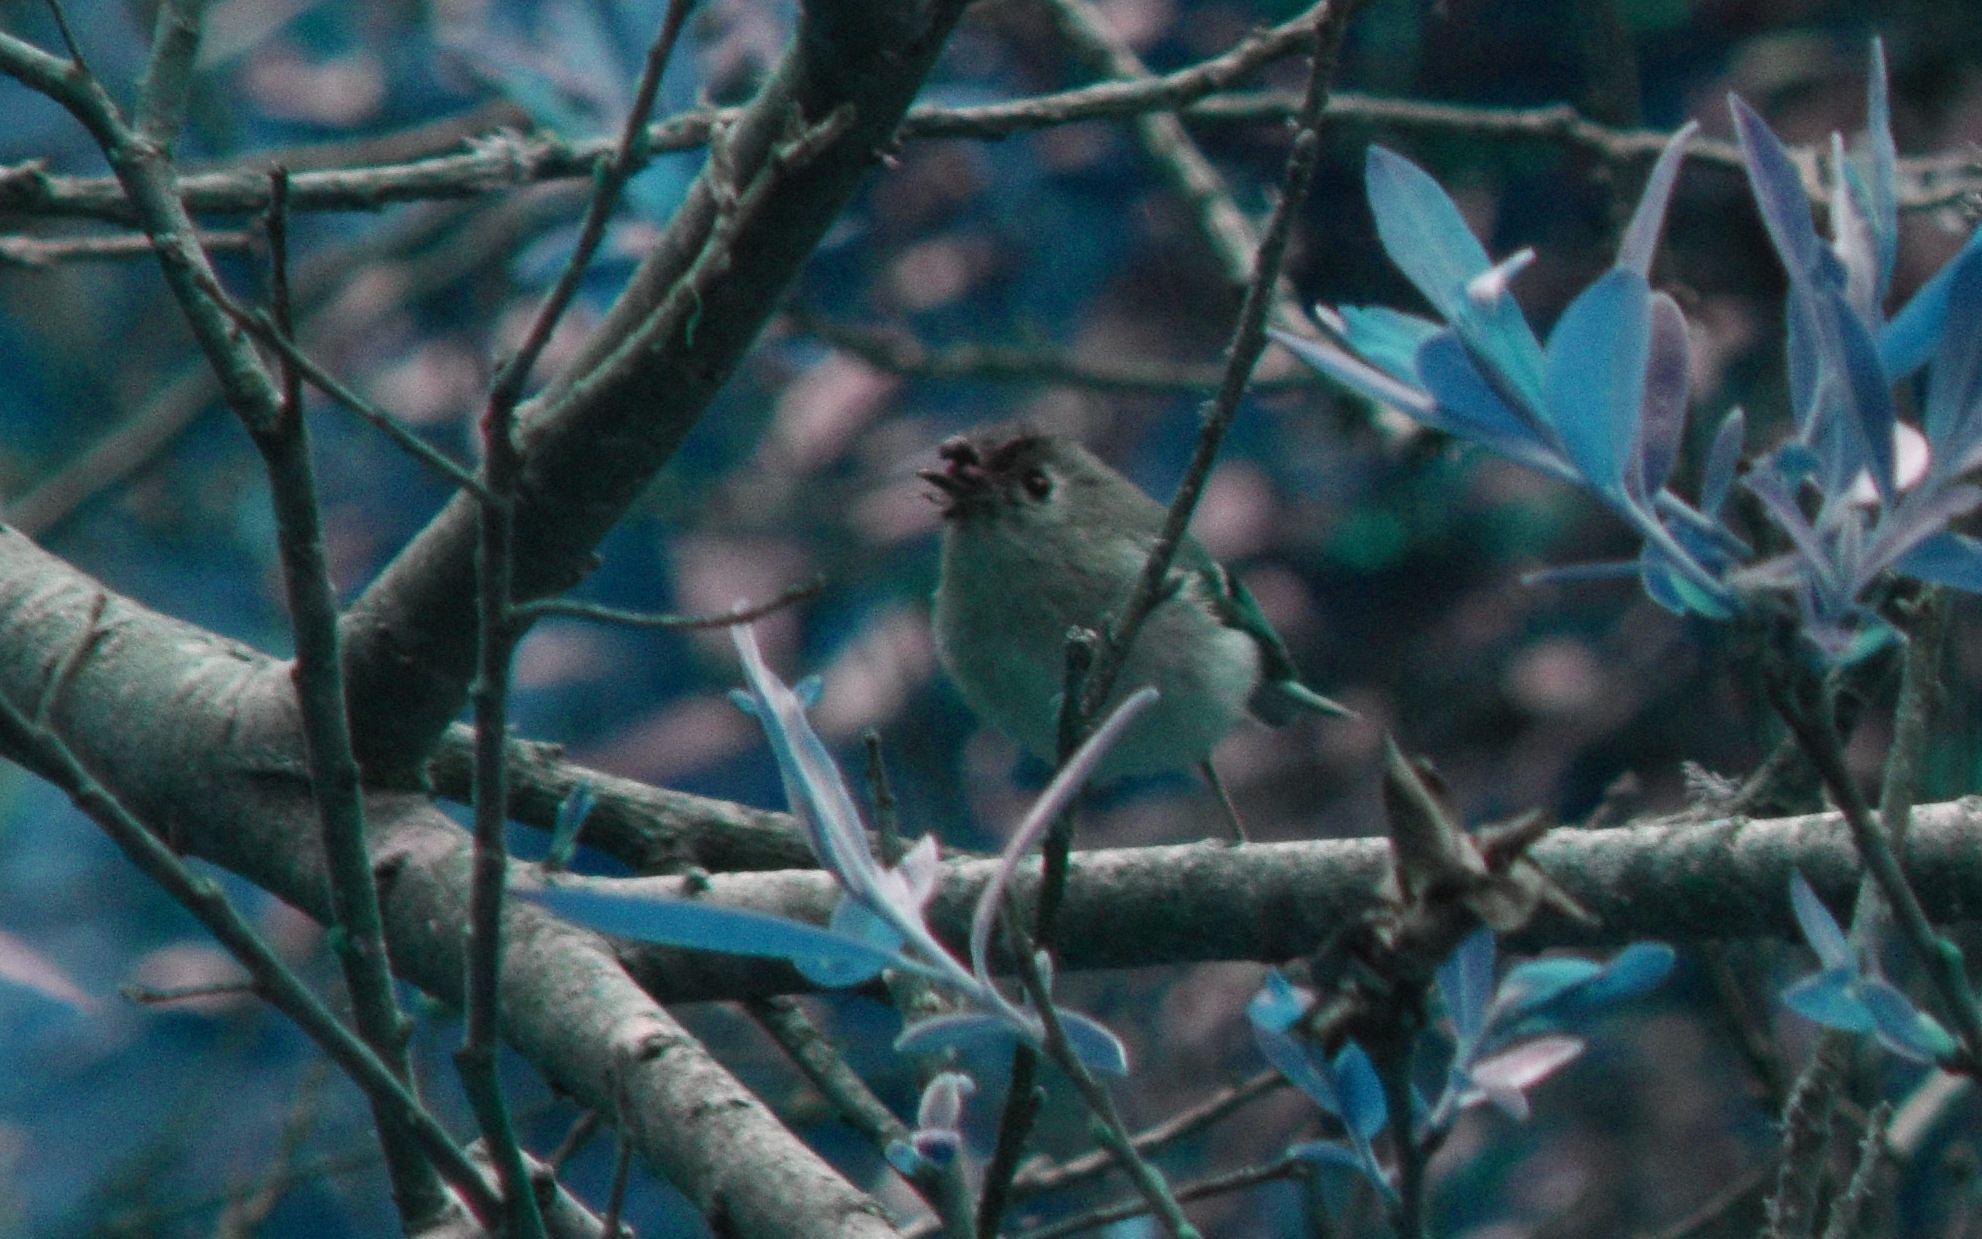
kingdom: Animalia
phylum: Chordata
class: Aves
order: Passeriformes
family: Regulidae
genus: Regulus
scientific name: Regulus calendula
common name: Ruby-crowned kinglet
